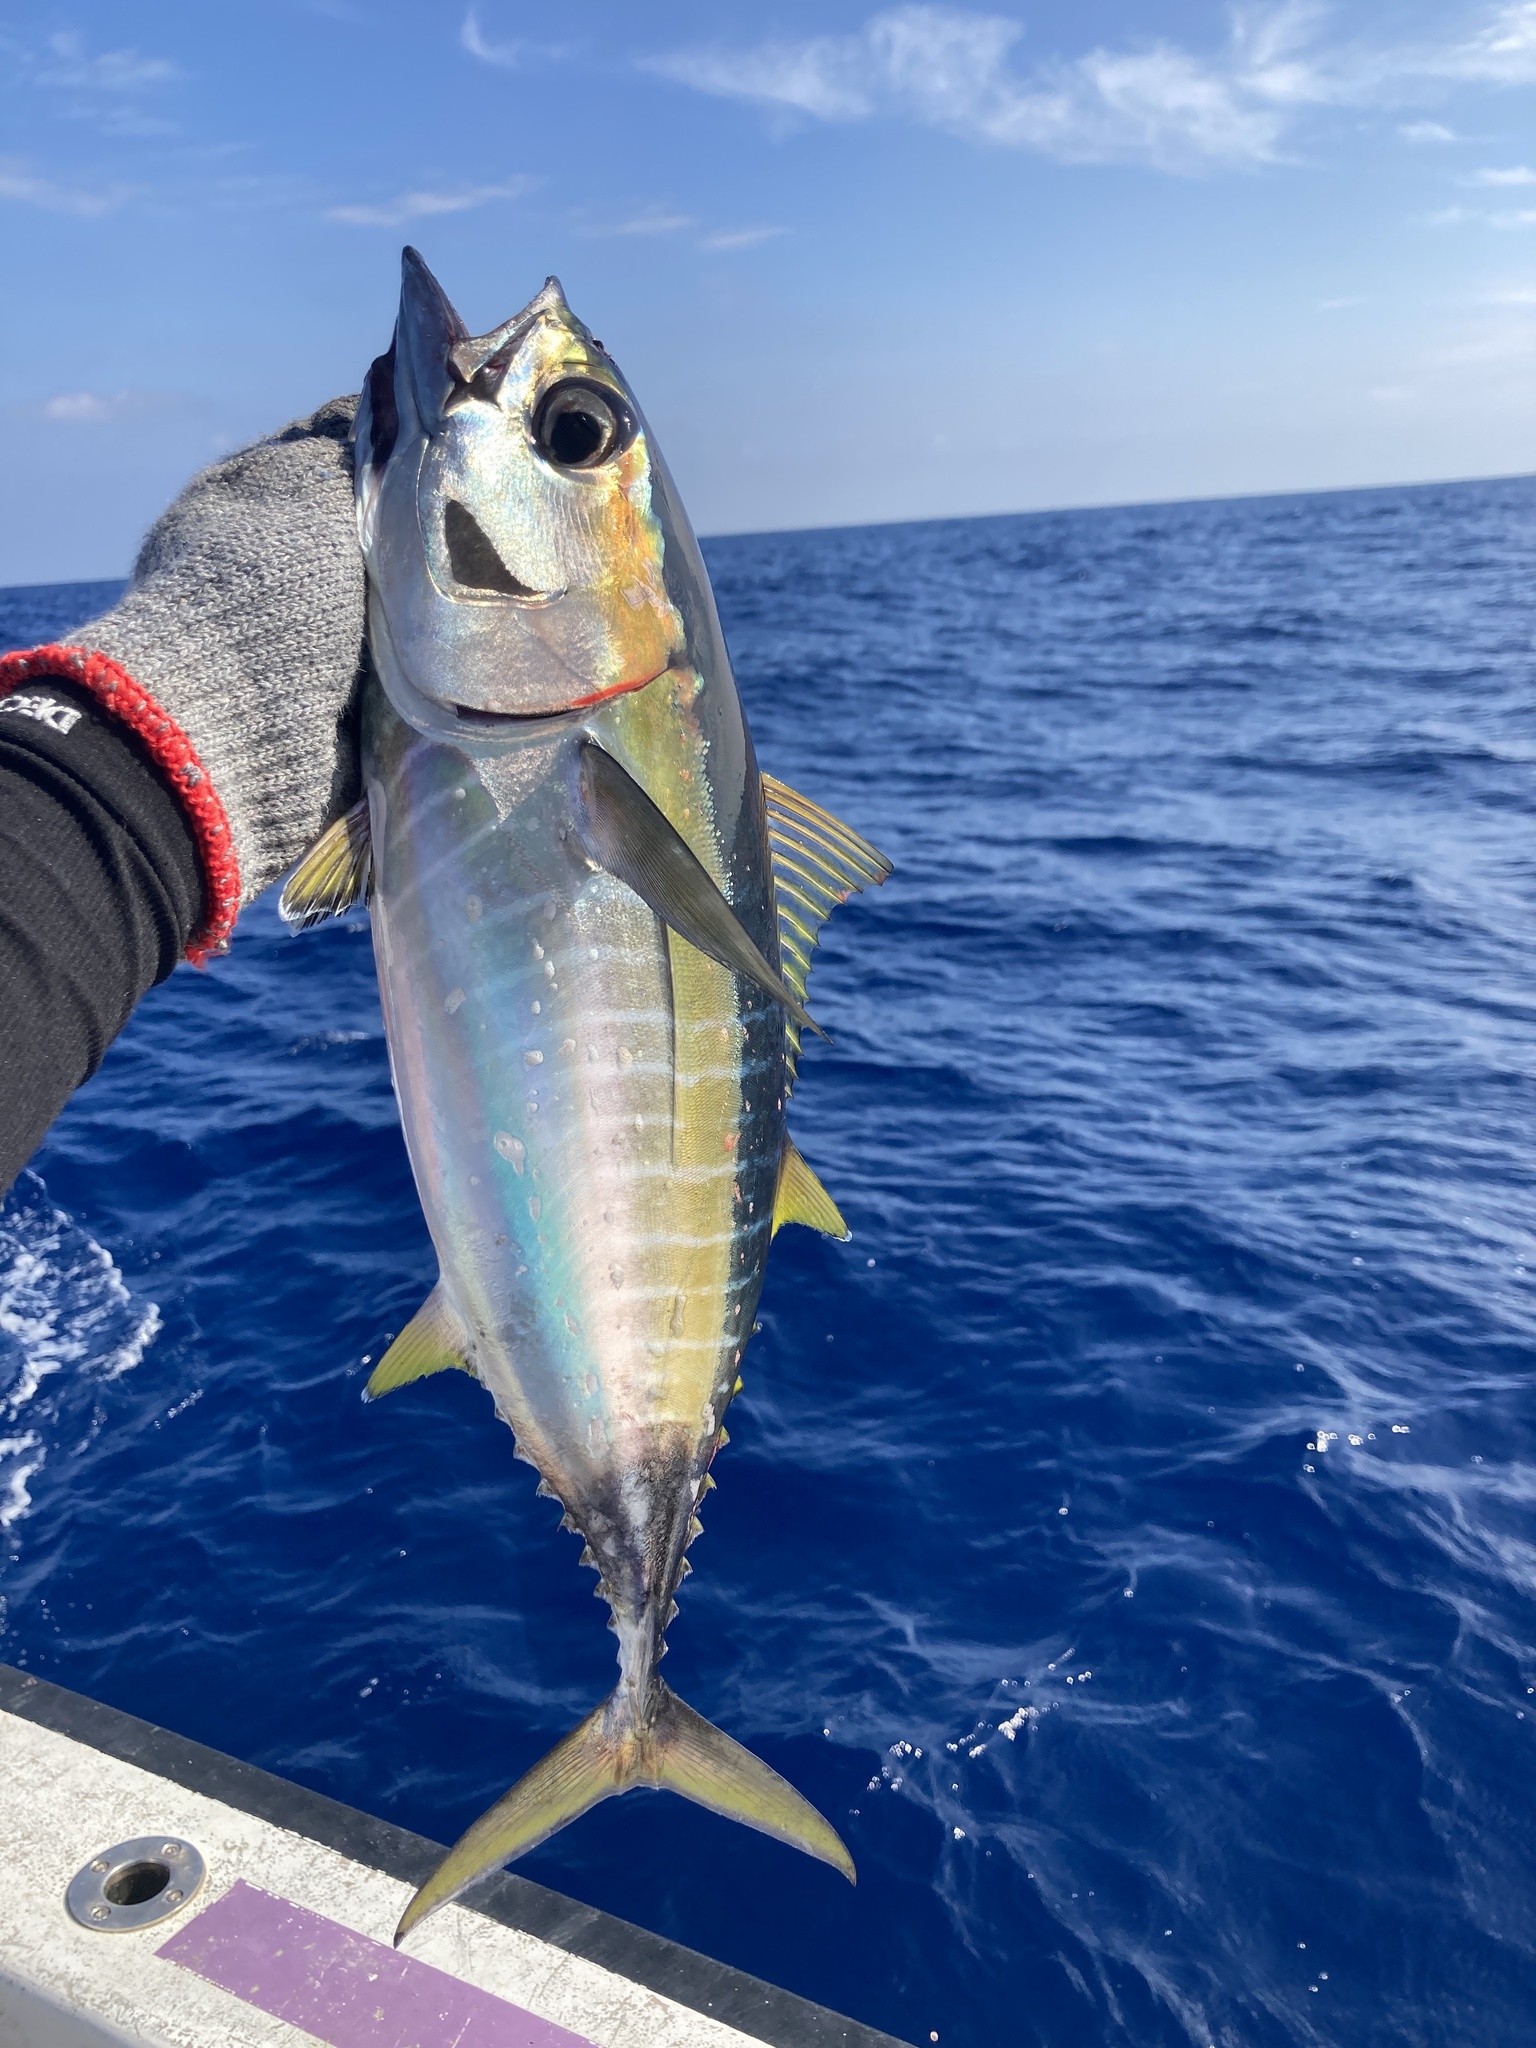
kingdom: Animalia
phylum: Chordata
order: Perciformes
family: Scombridae
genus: Thunnus
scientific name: Thunnus albacares
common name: Yellowfin tuna
